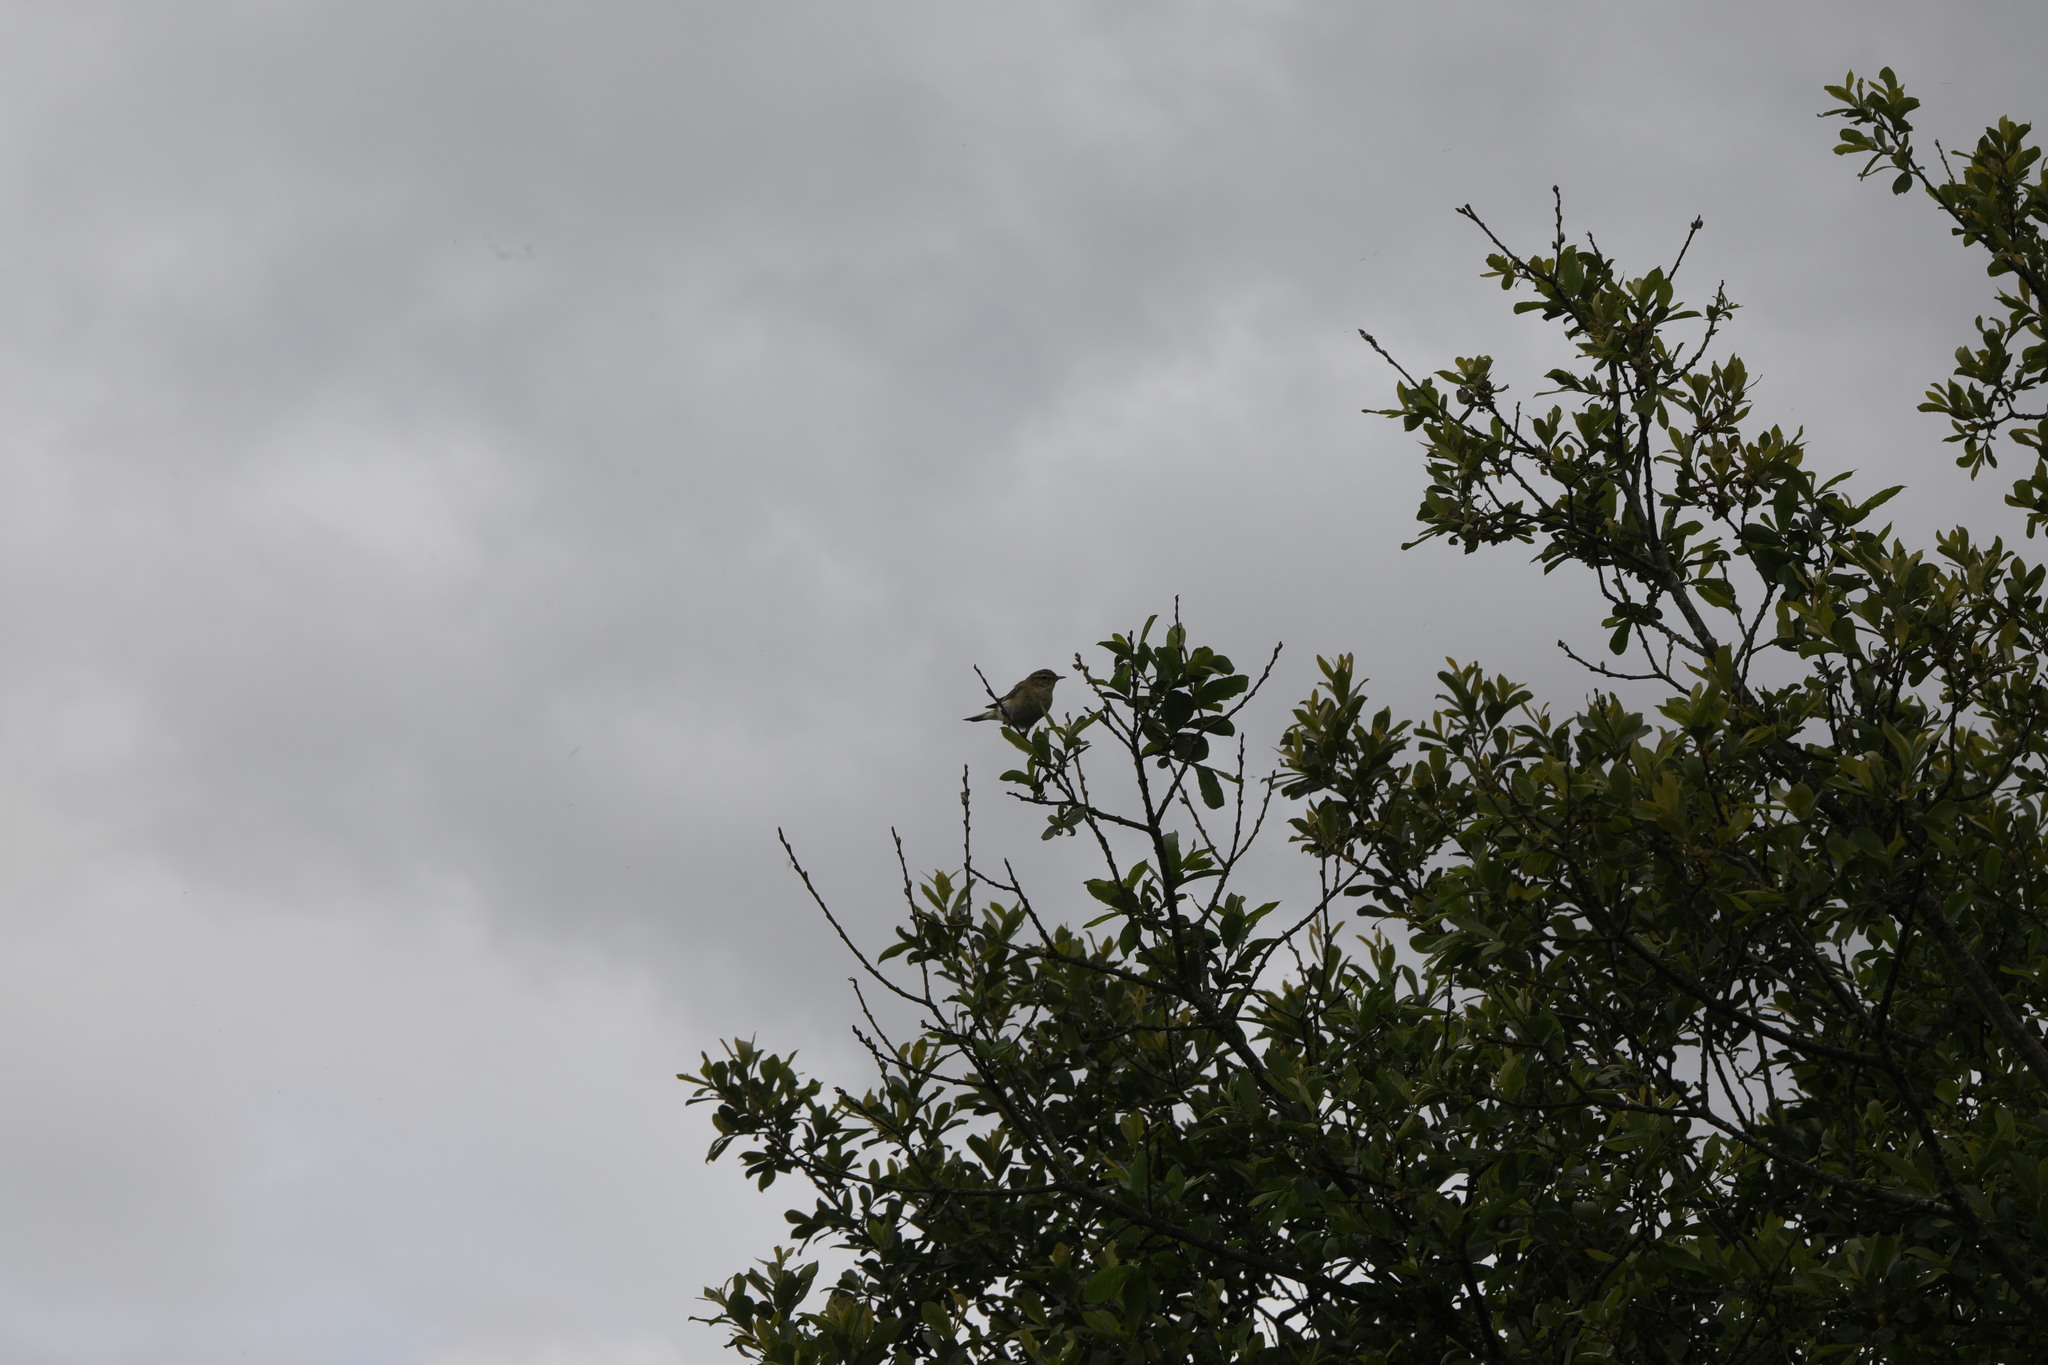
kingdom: Animalia
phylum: Chordata
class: Aves
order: Passeriformes
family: Phylloscopidae
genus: Phylloscopus
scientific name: Phylloscopus collybita
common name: Common chiffchaff
